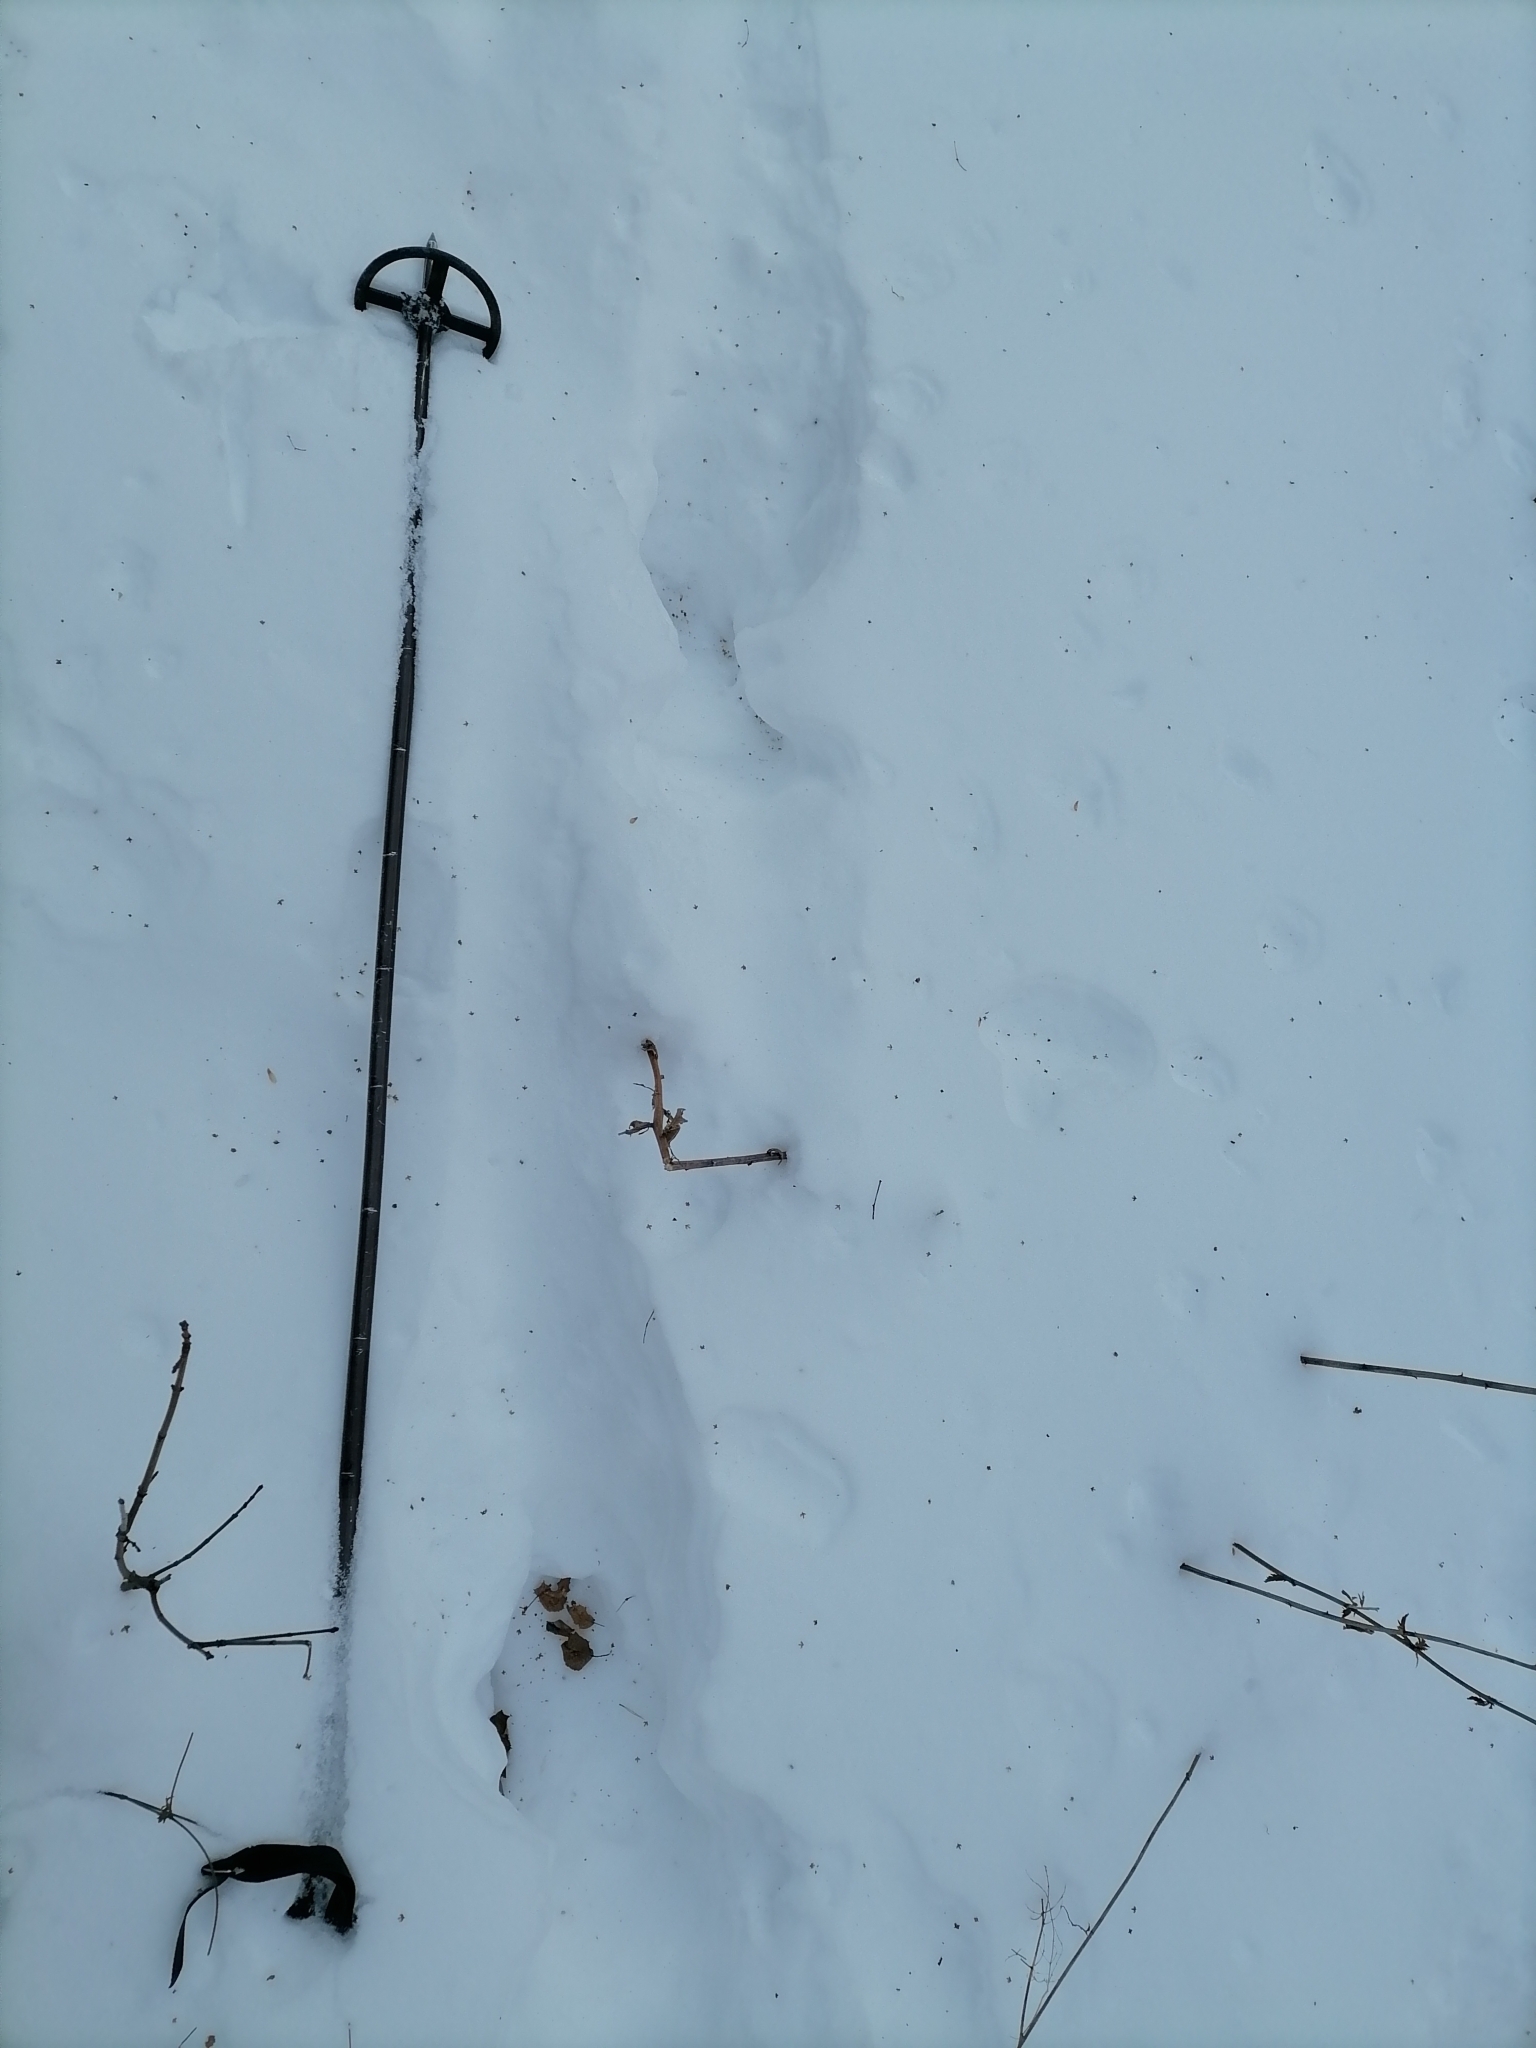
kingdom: Animalia
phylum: Chordata
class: Mammalia
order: Artiodactyla
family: Cervidae
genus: Alces
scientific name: Alces alces
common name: Moose
